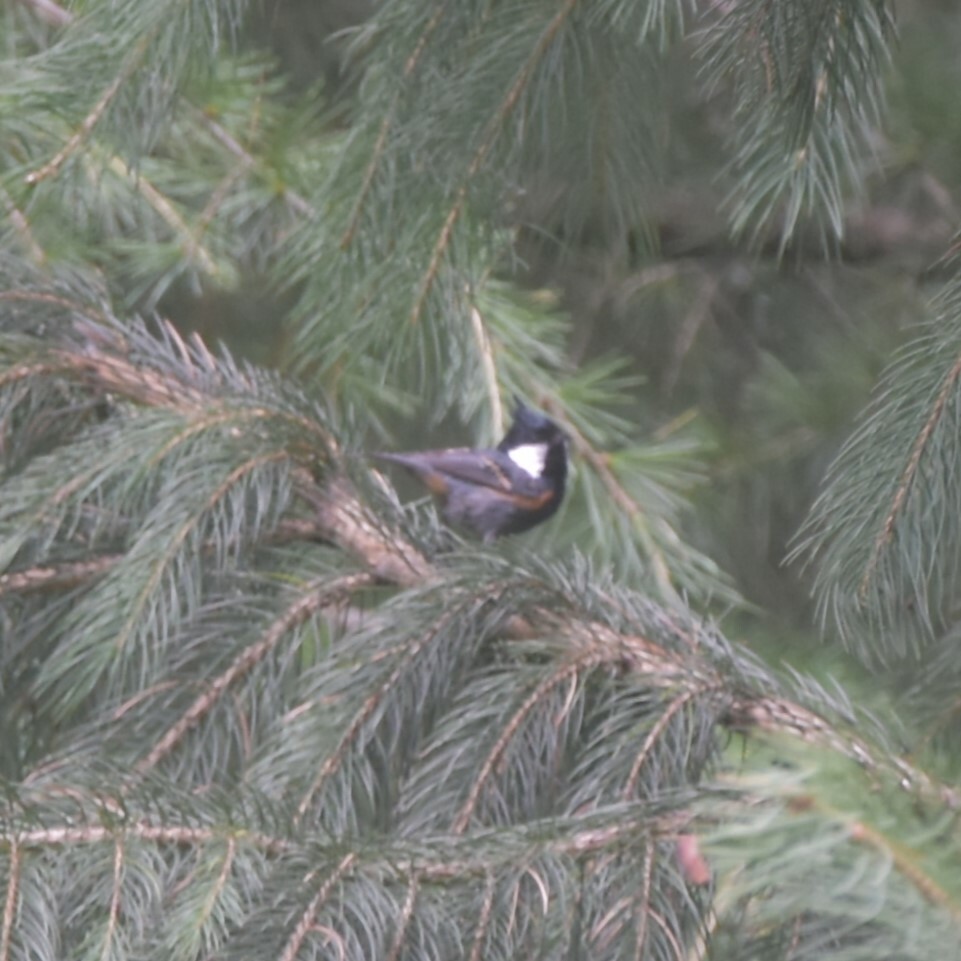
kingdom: Animalia
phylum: Chordata
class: Aves
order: Passeriformes
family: Paridae
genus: Periparus
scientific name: Periparus ater
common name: Coal tit
